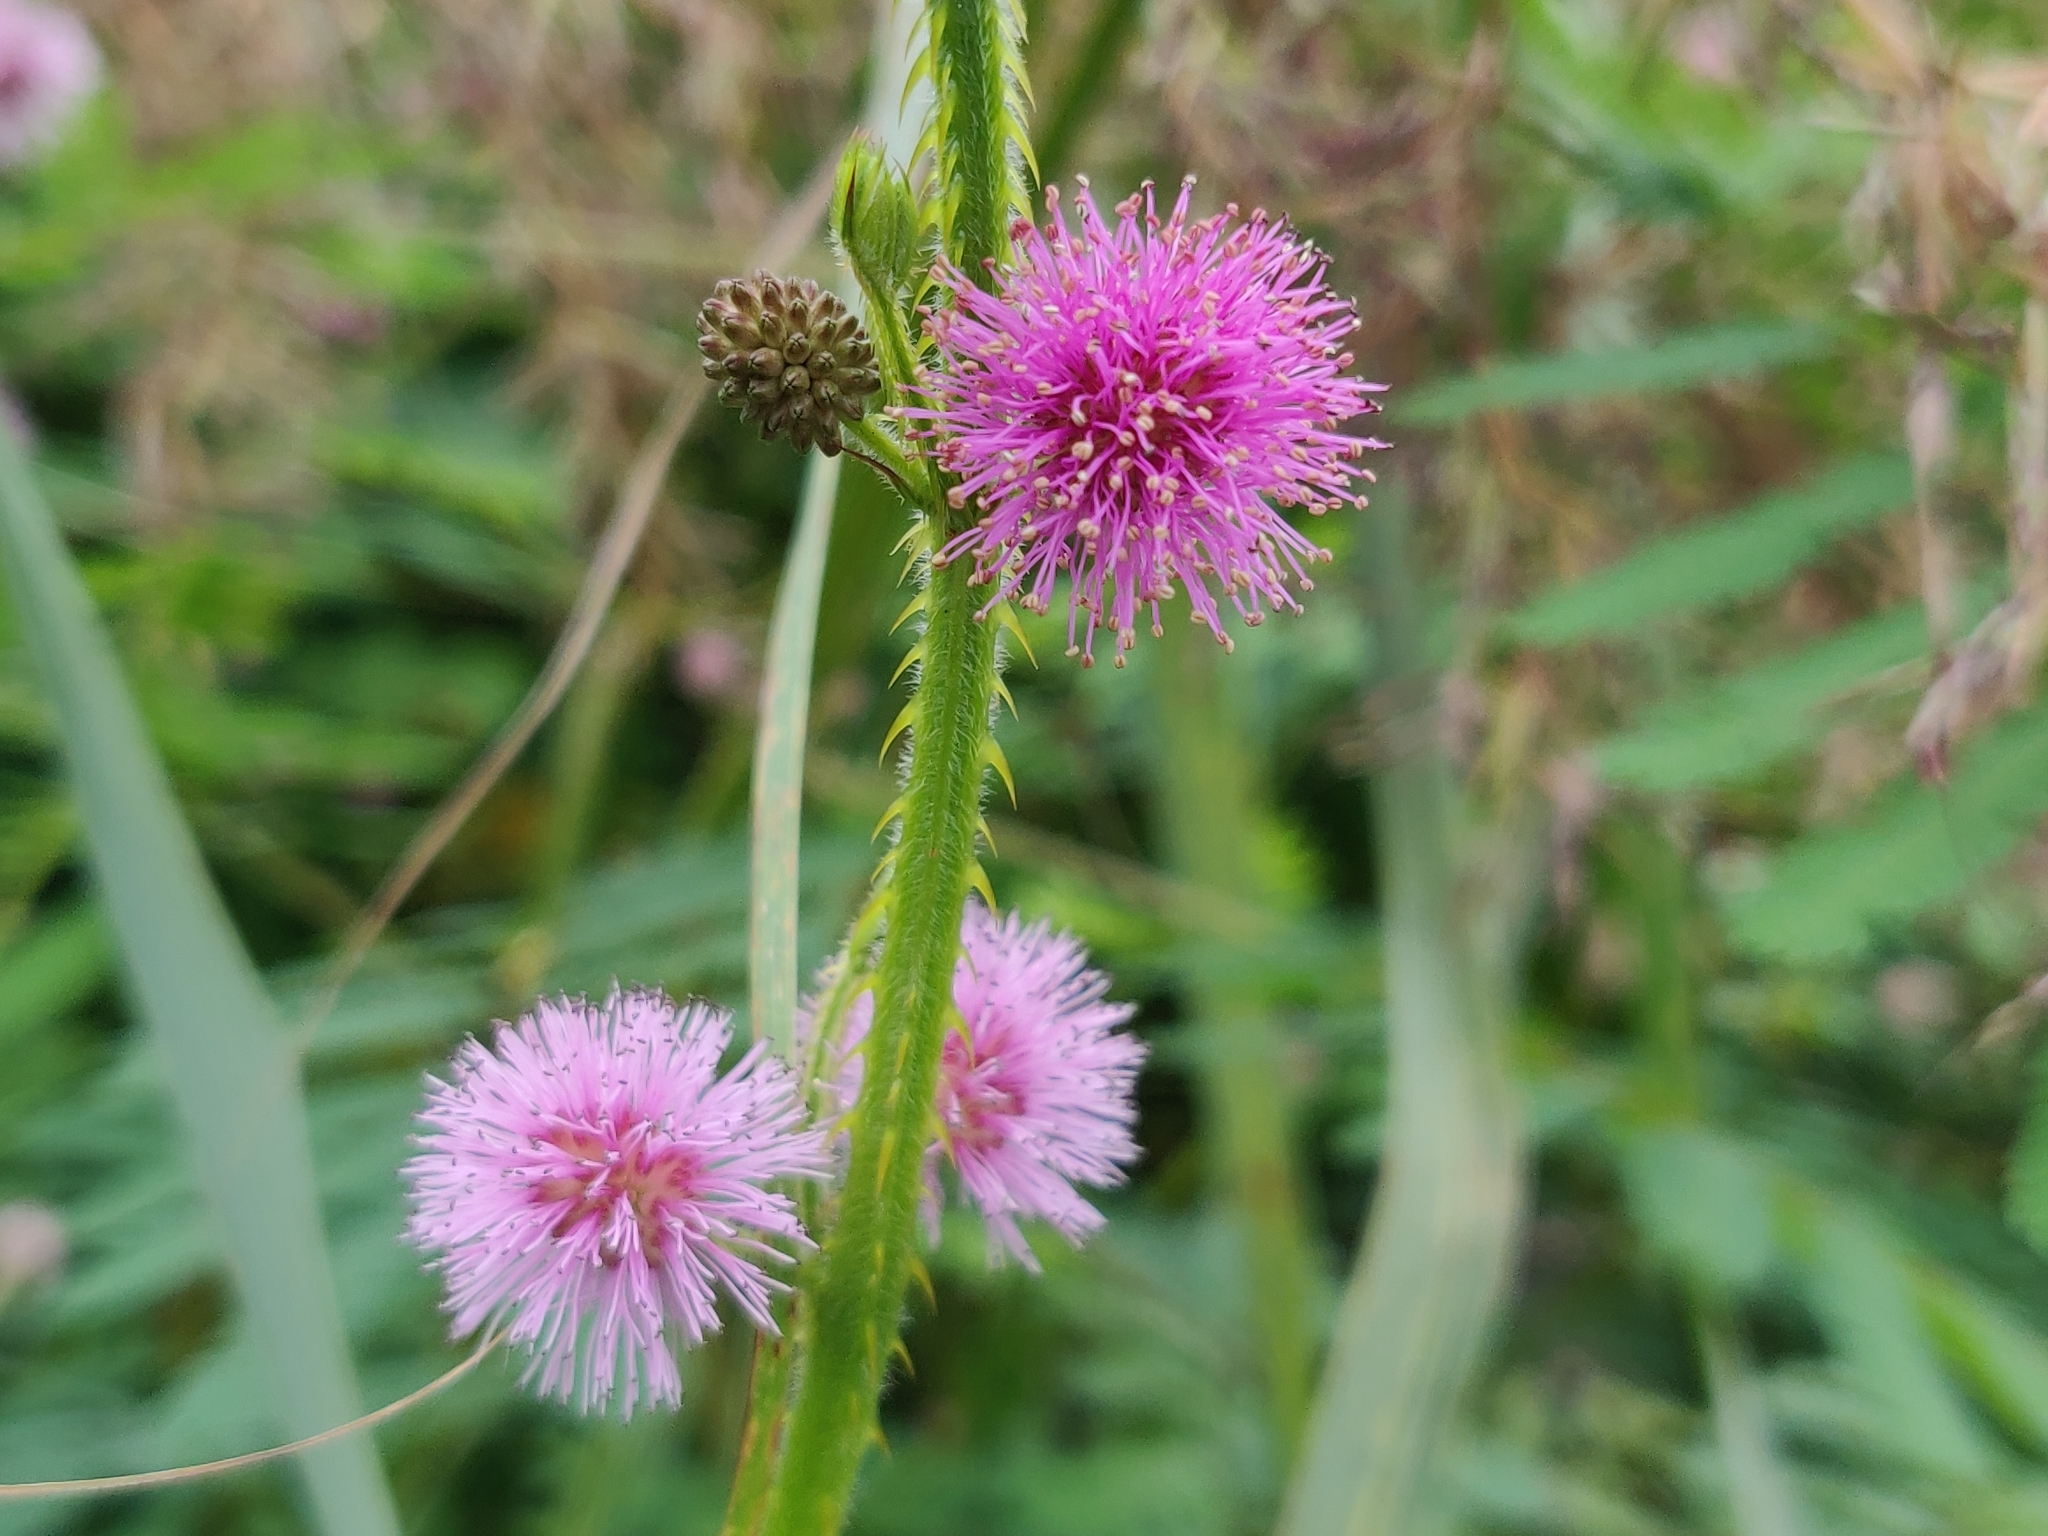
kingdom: Plantae
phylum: Tracheophyta
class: Magnoliopsida
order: Fabales
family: Fabaceae
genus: Mimosa
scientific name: Mimosa diplotricha
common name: Giant sensitive-plant
